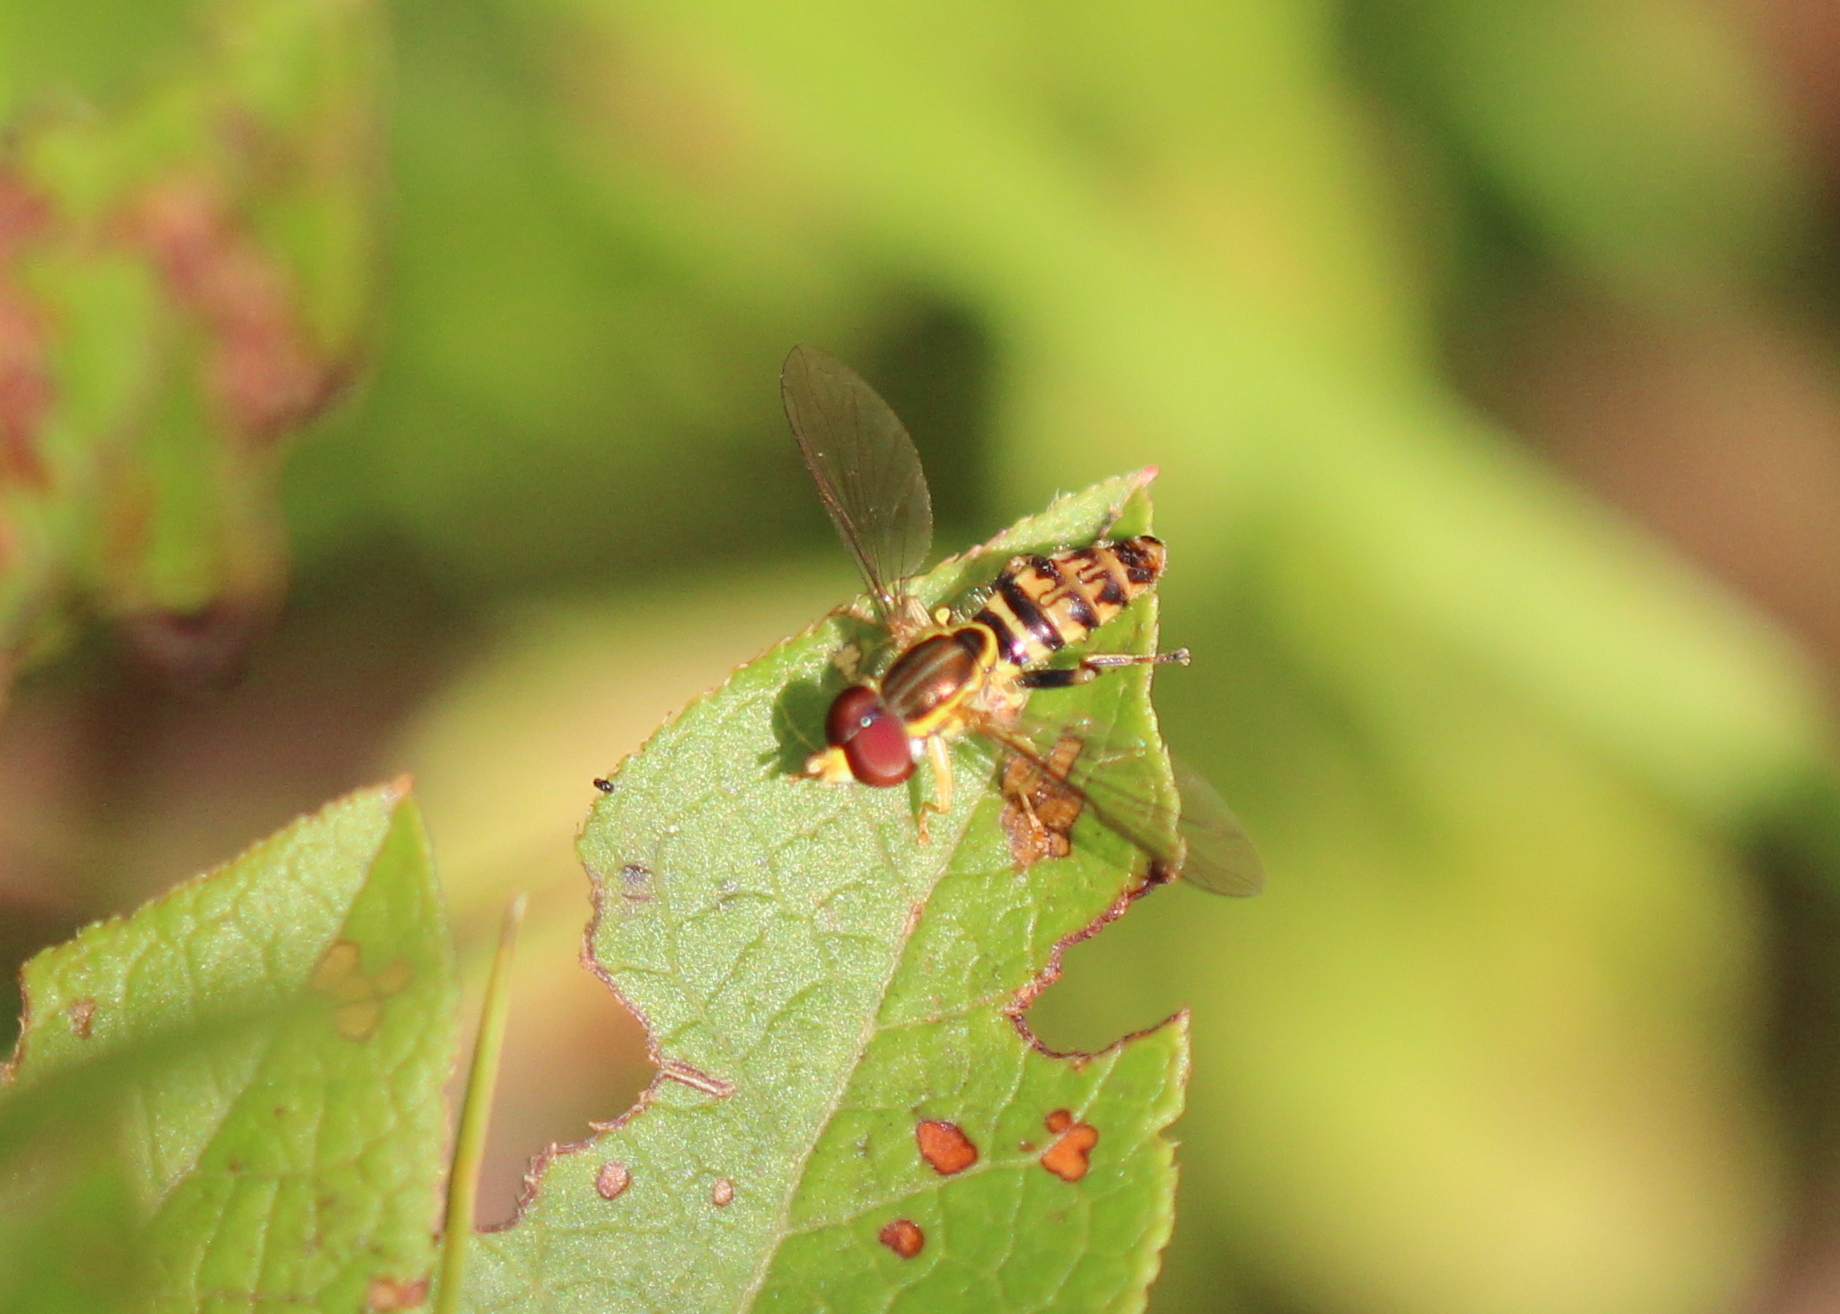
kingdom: Animalia
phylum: Arthropoda
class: Insecta
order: Diptera
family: Syrphidae
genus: Toxomerus
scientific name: Toxomerus geminatus
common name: Eastern calligrapher
